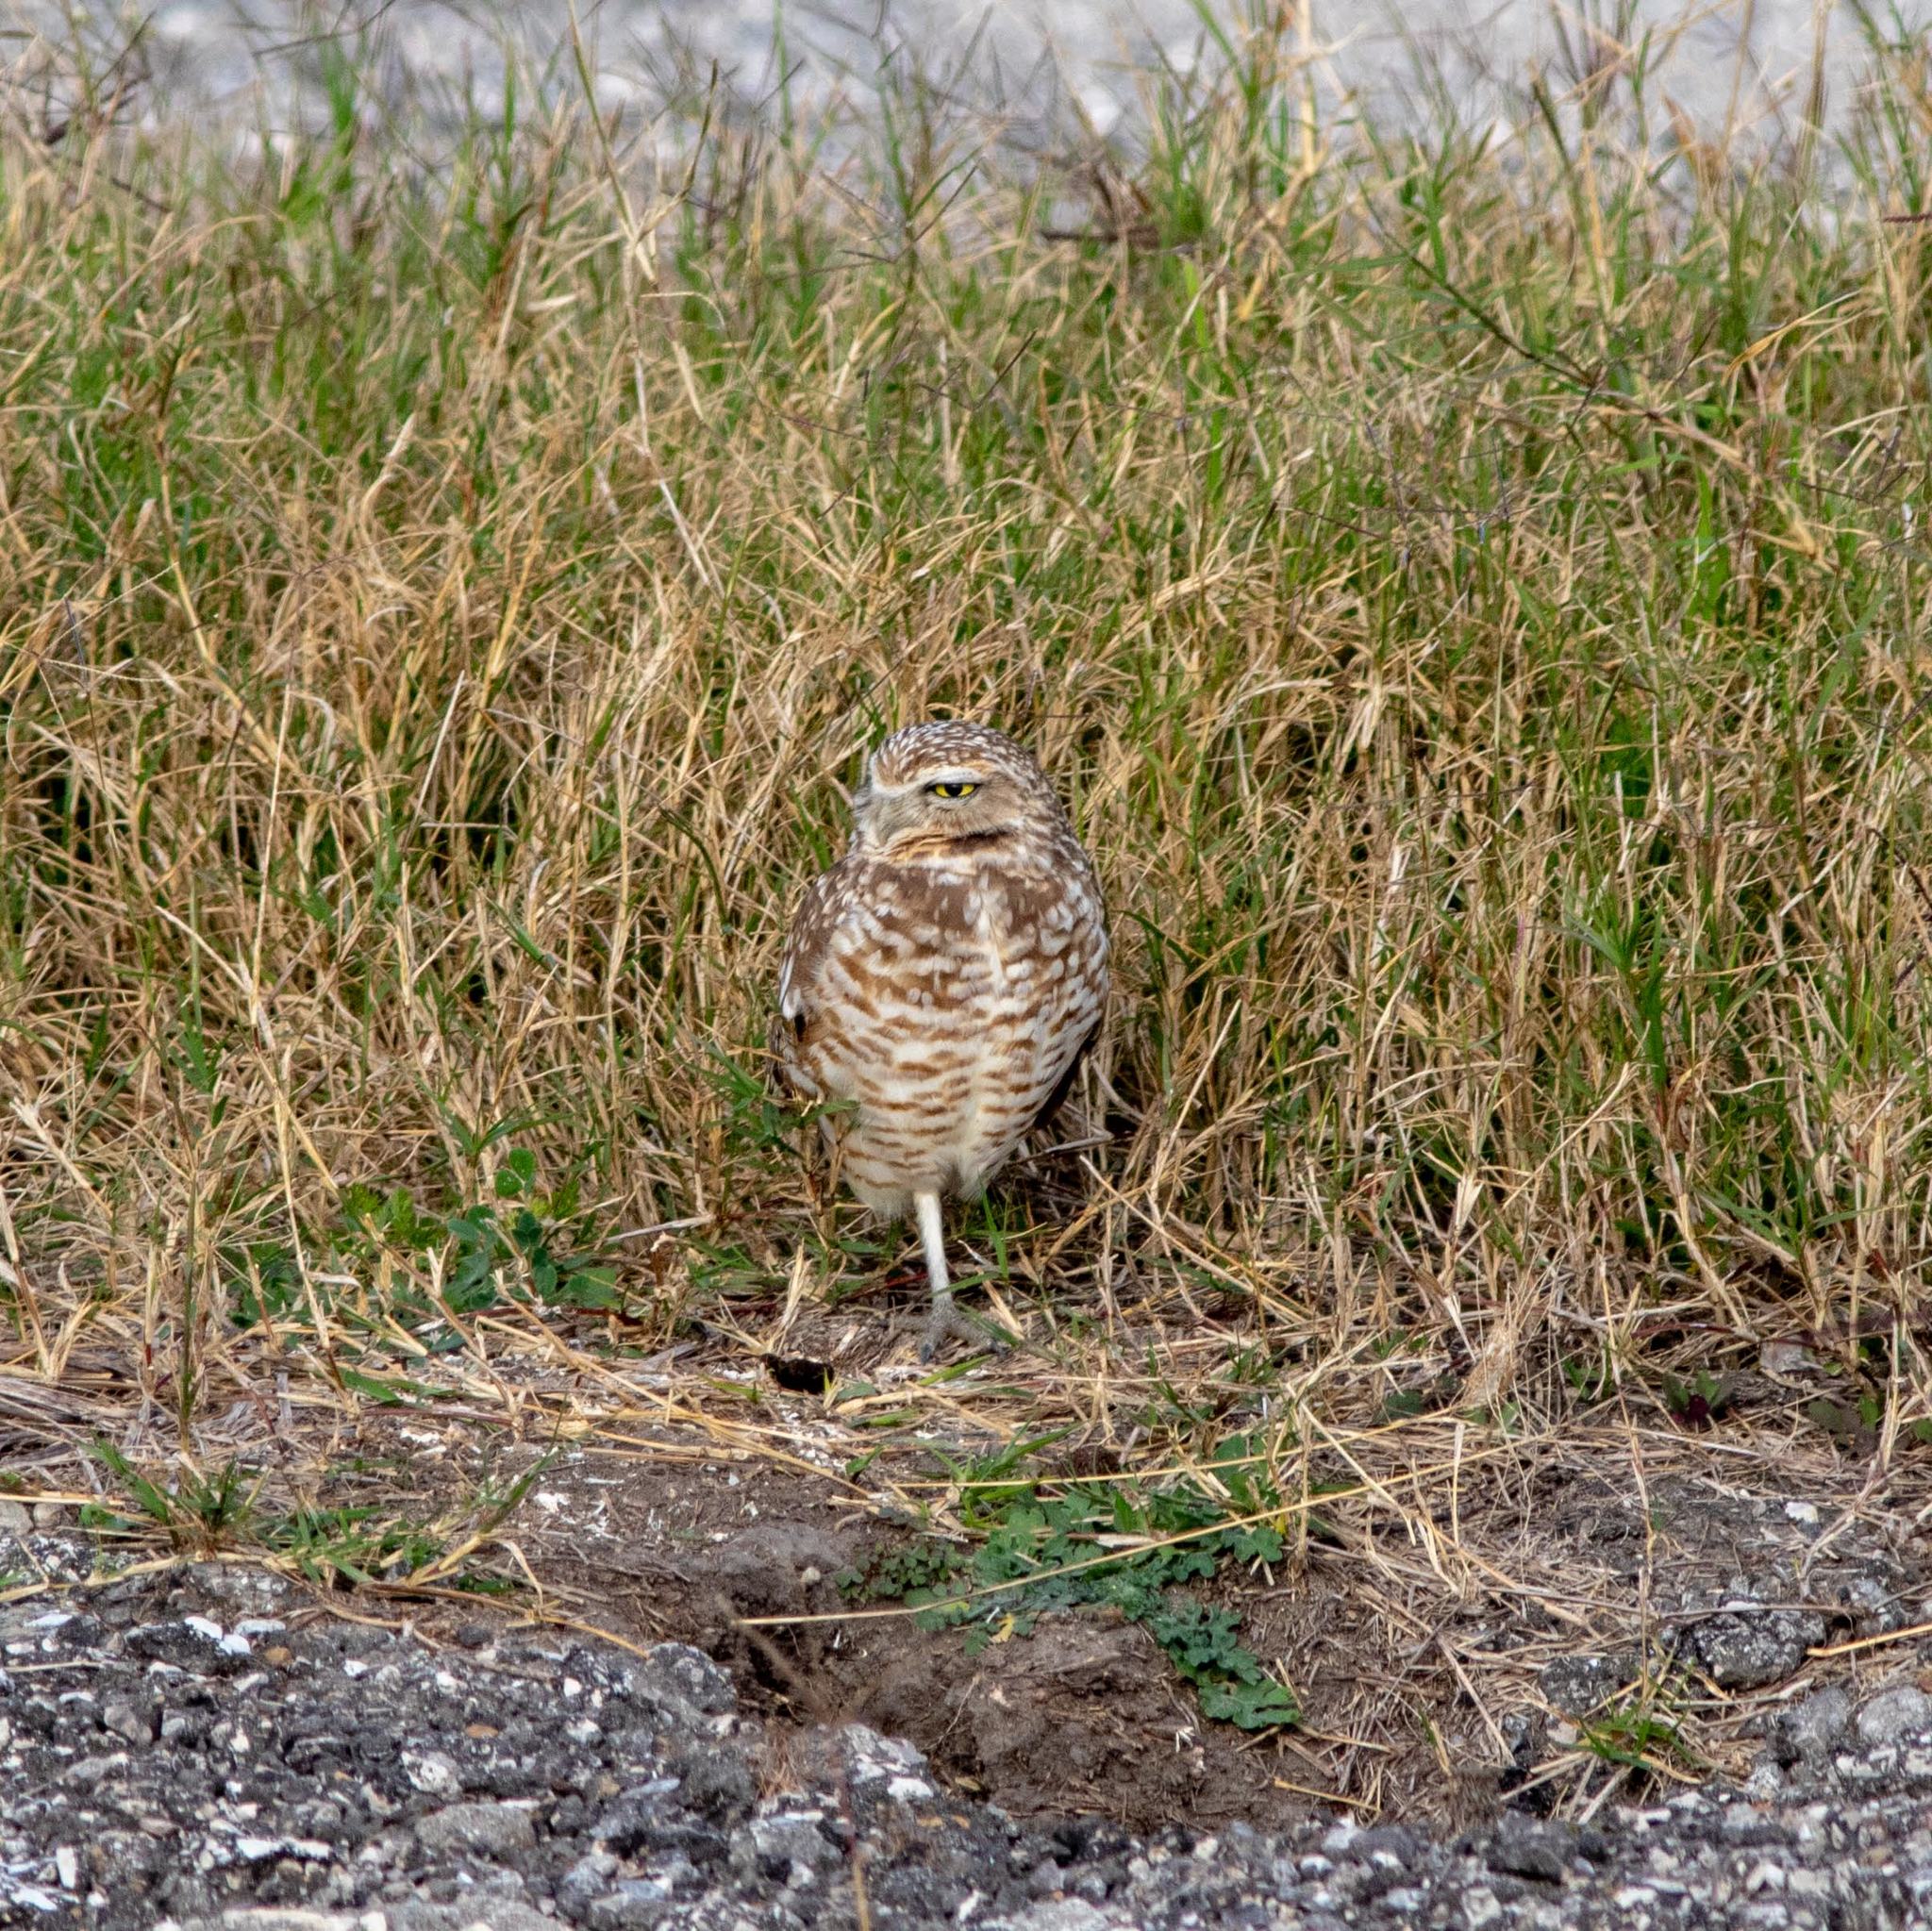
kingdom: Animalia
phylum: Chordata
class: Aves
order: Strigiformes
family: Strigidae
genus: Athene
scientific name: Athene cunicularia
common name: Burrowing owl
